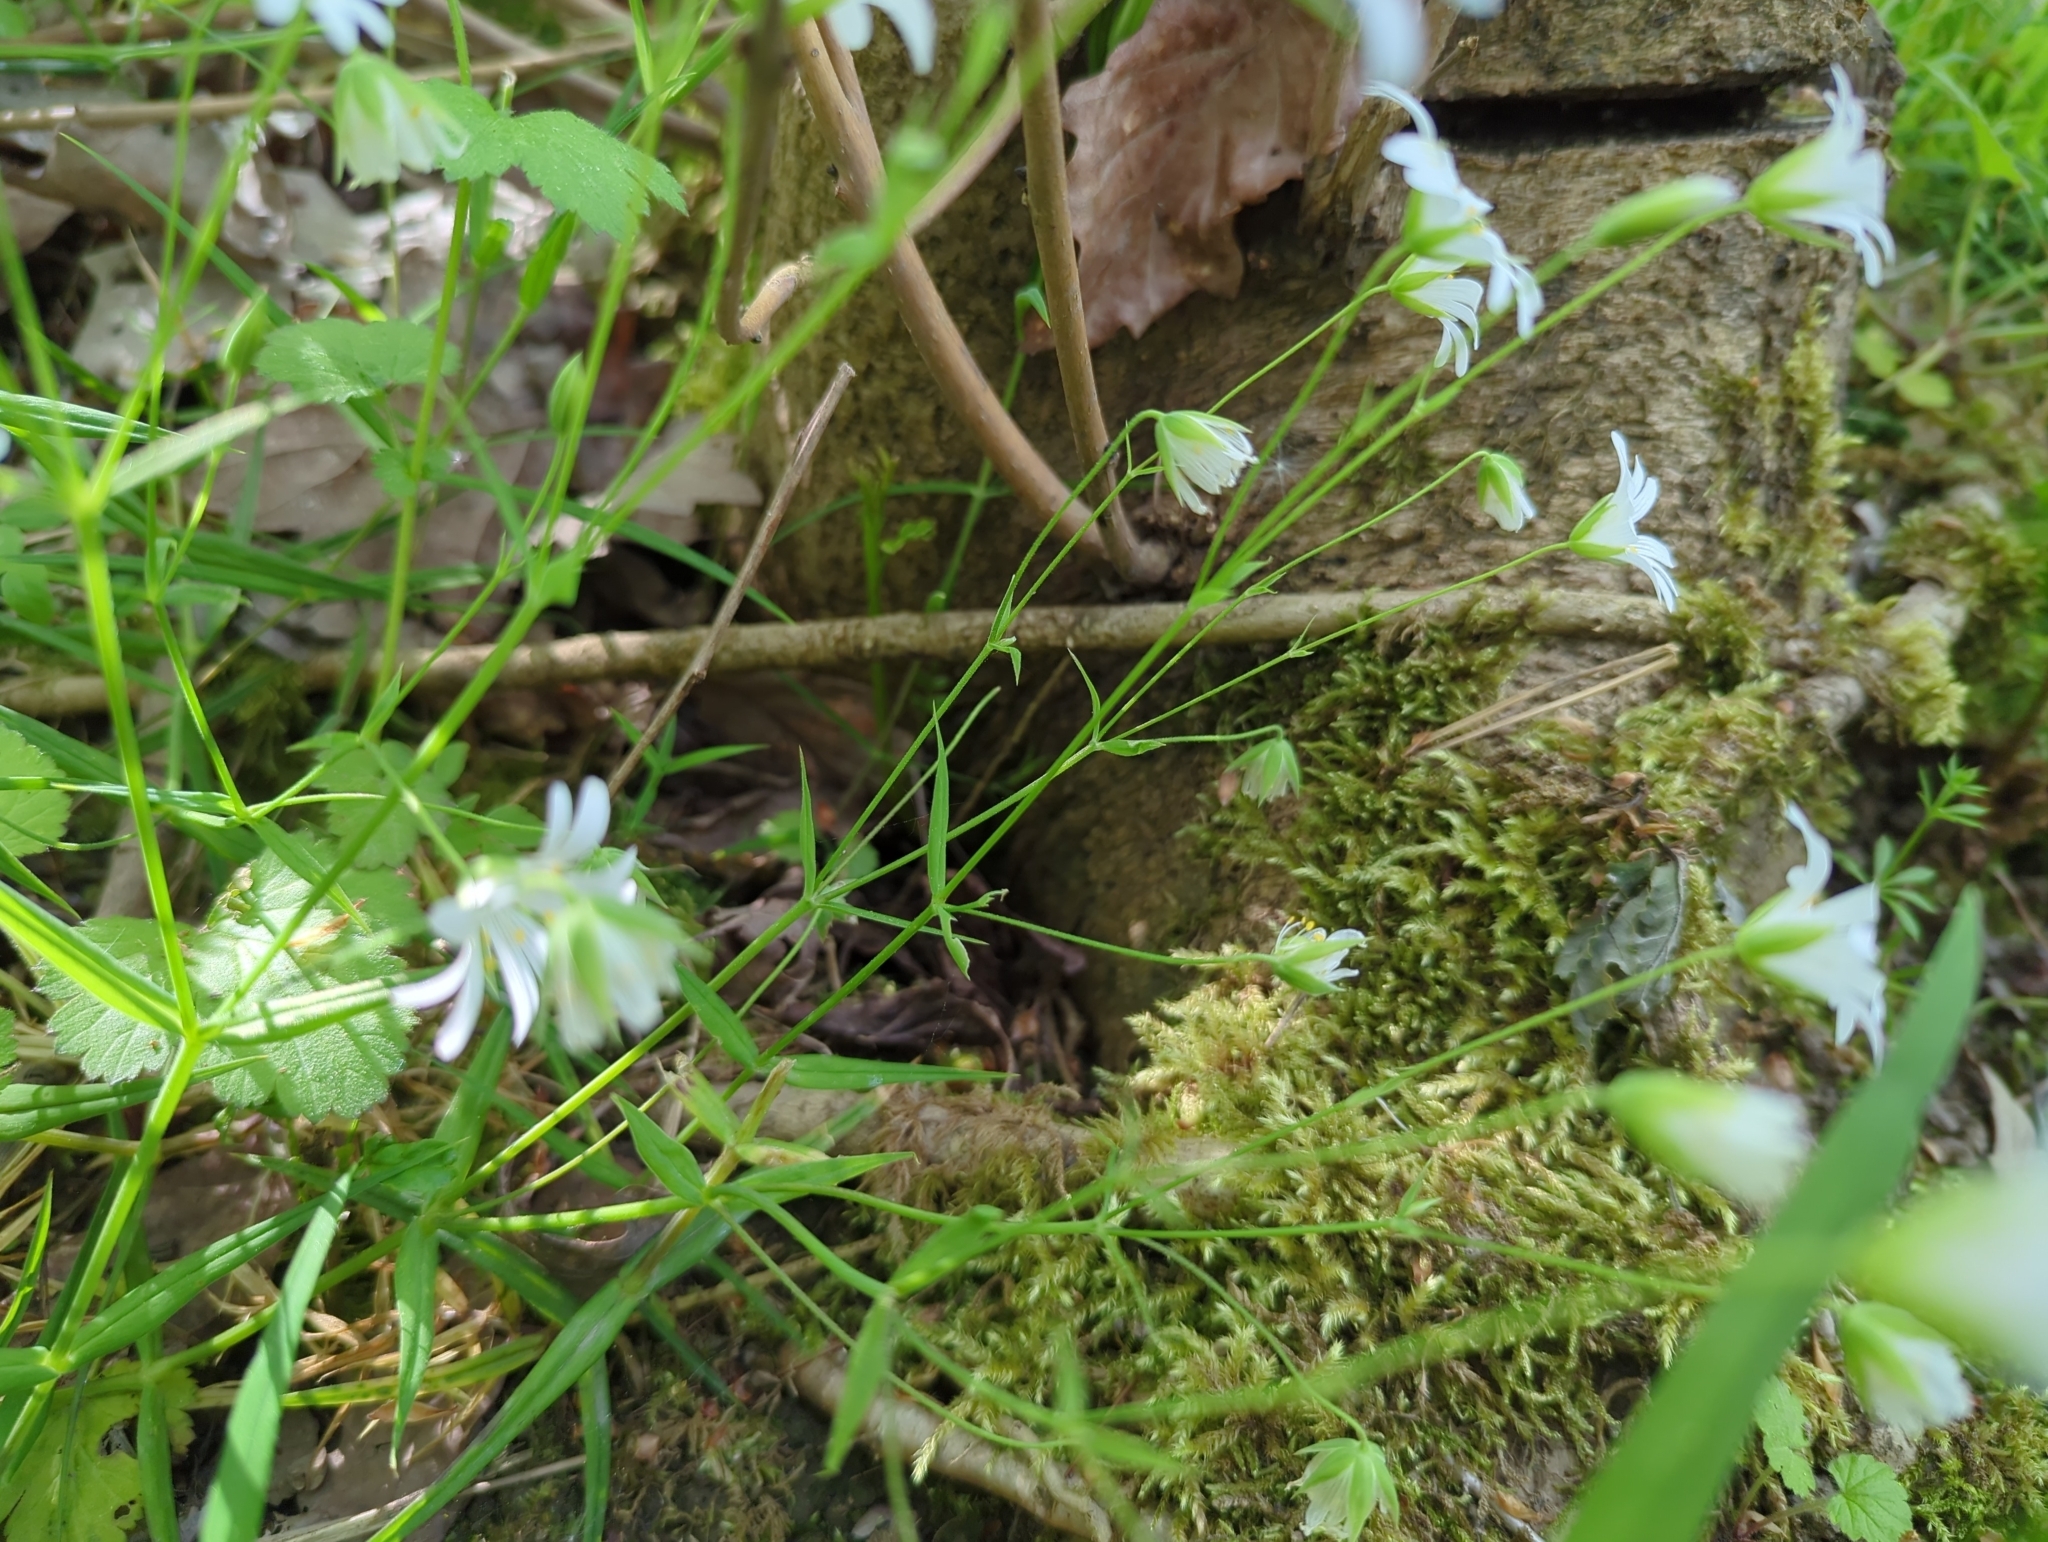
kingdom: Plantae
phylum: Tracheophyta
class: Magnoliopsida
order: Caryophyllales
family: Caryophyllaceae
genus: Rabelera
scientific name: Rabelera holostea
